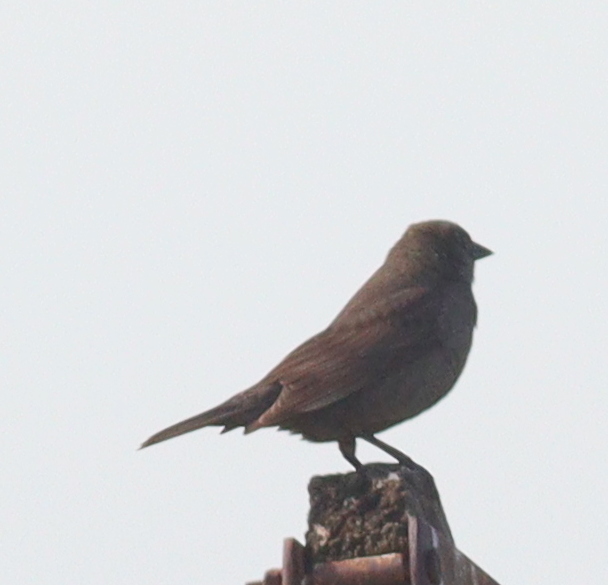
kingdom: Animalia
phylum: Chordata
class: Aves
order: Passeriformes
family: Icteridae
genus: Molothrus
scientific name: Molothrus bonariensis
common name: Shiny cowbird
